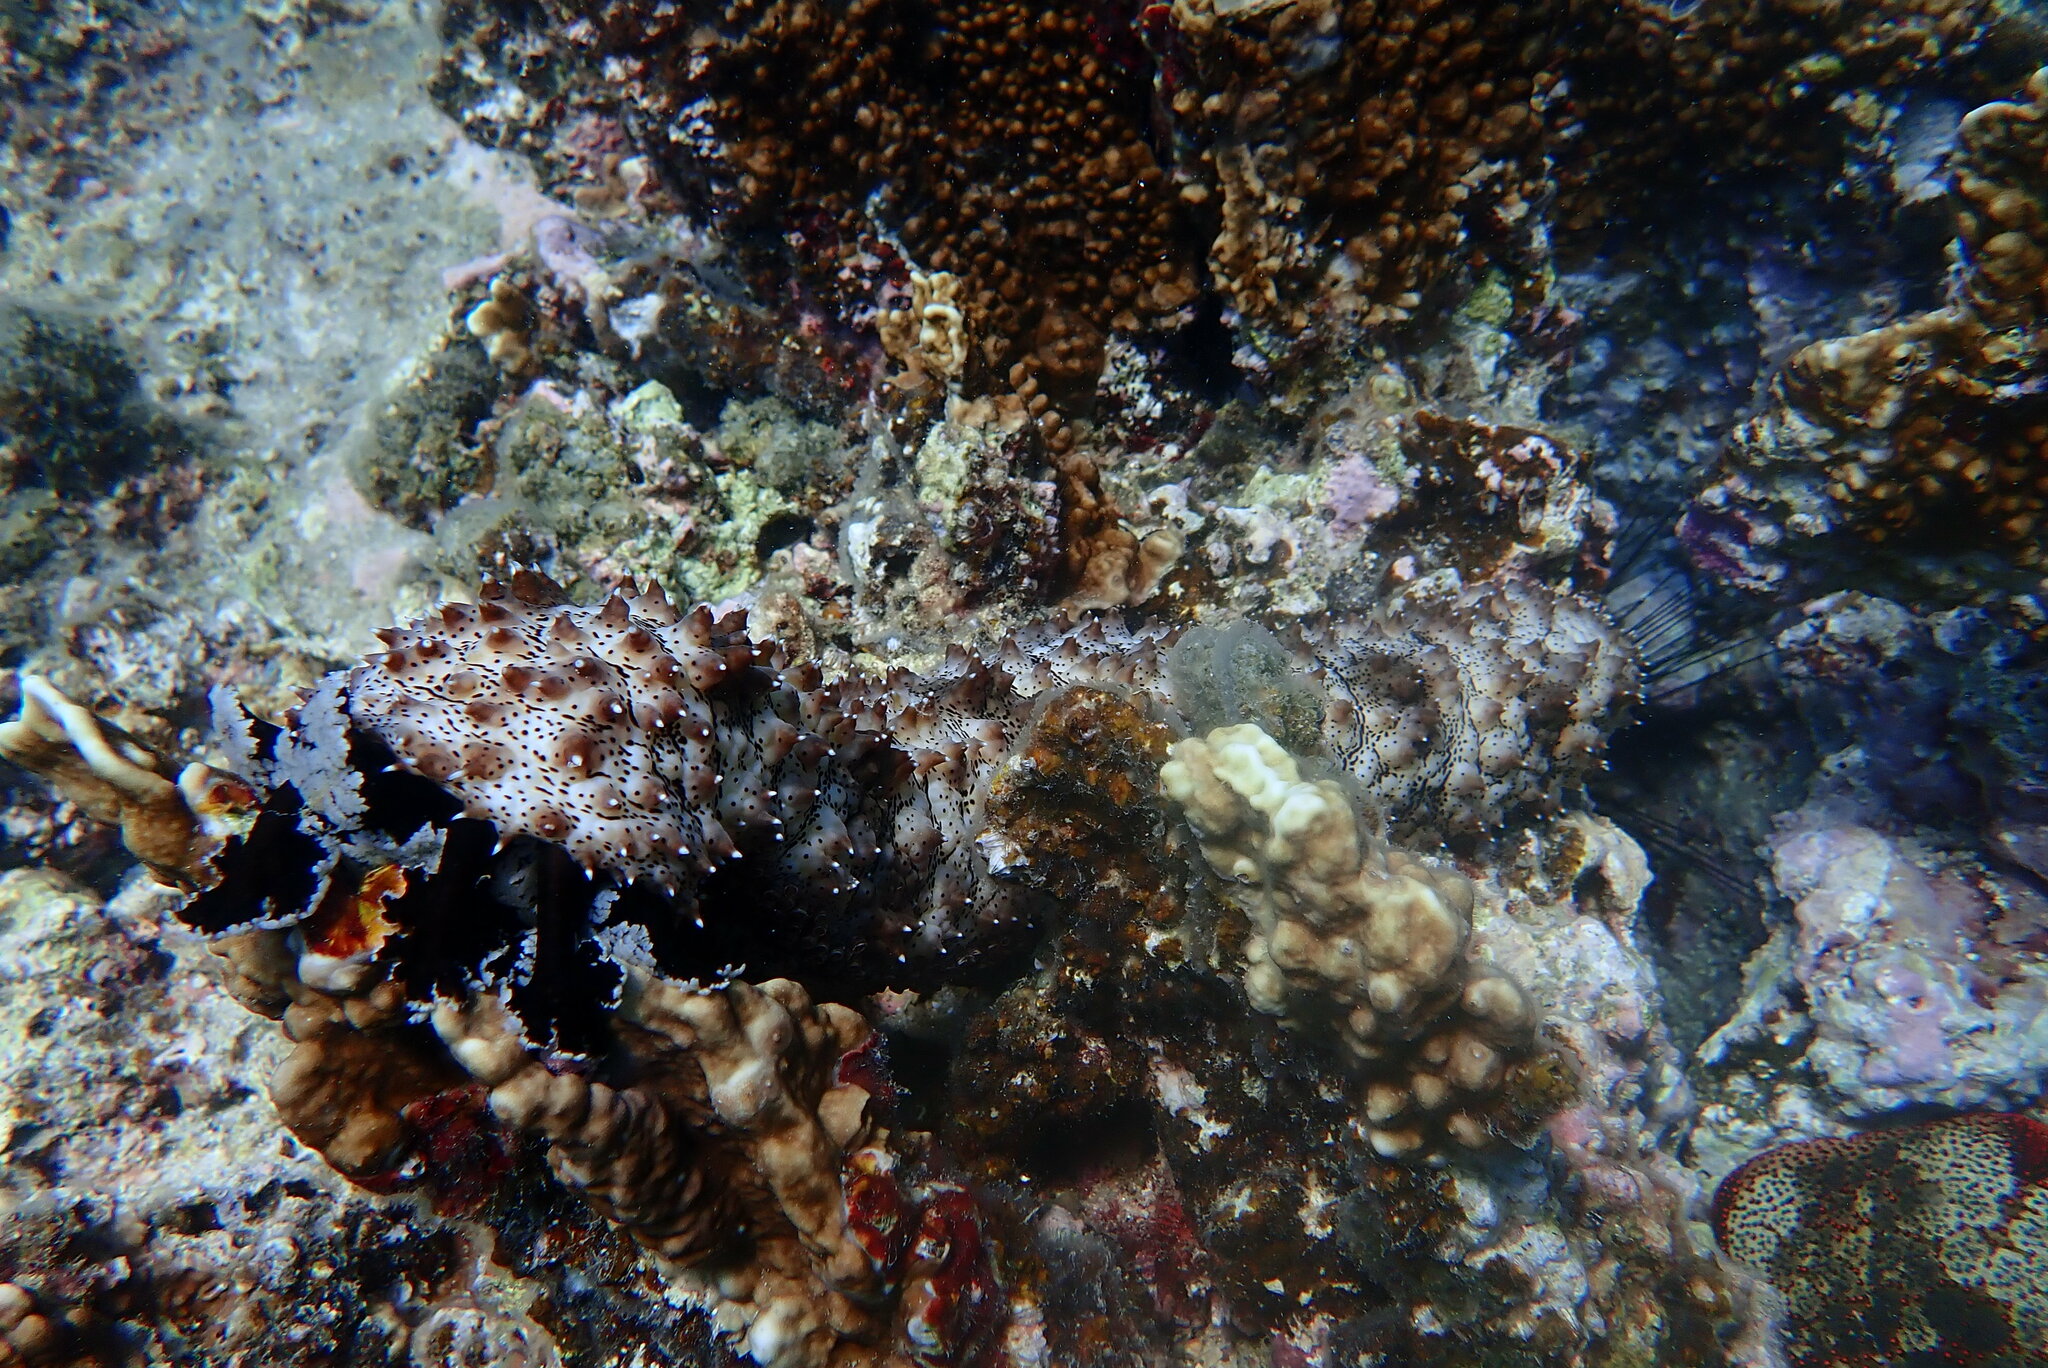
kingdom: Animalia
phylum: Echinodermata
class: Holothuroidea
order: Holothuriida
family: Holothuriidae
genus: Pearsonothuria
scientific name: Pearsonothuria graeffei
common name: Blackspotted sea cucumber
